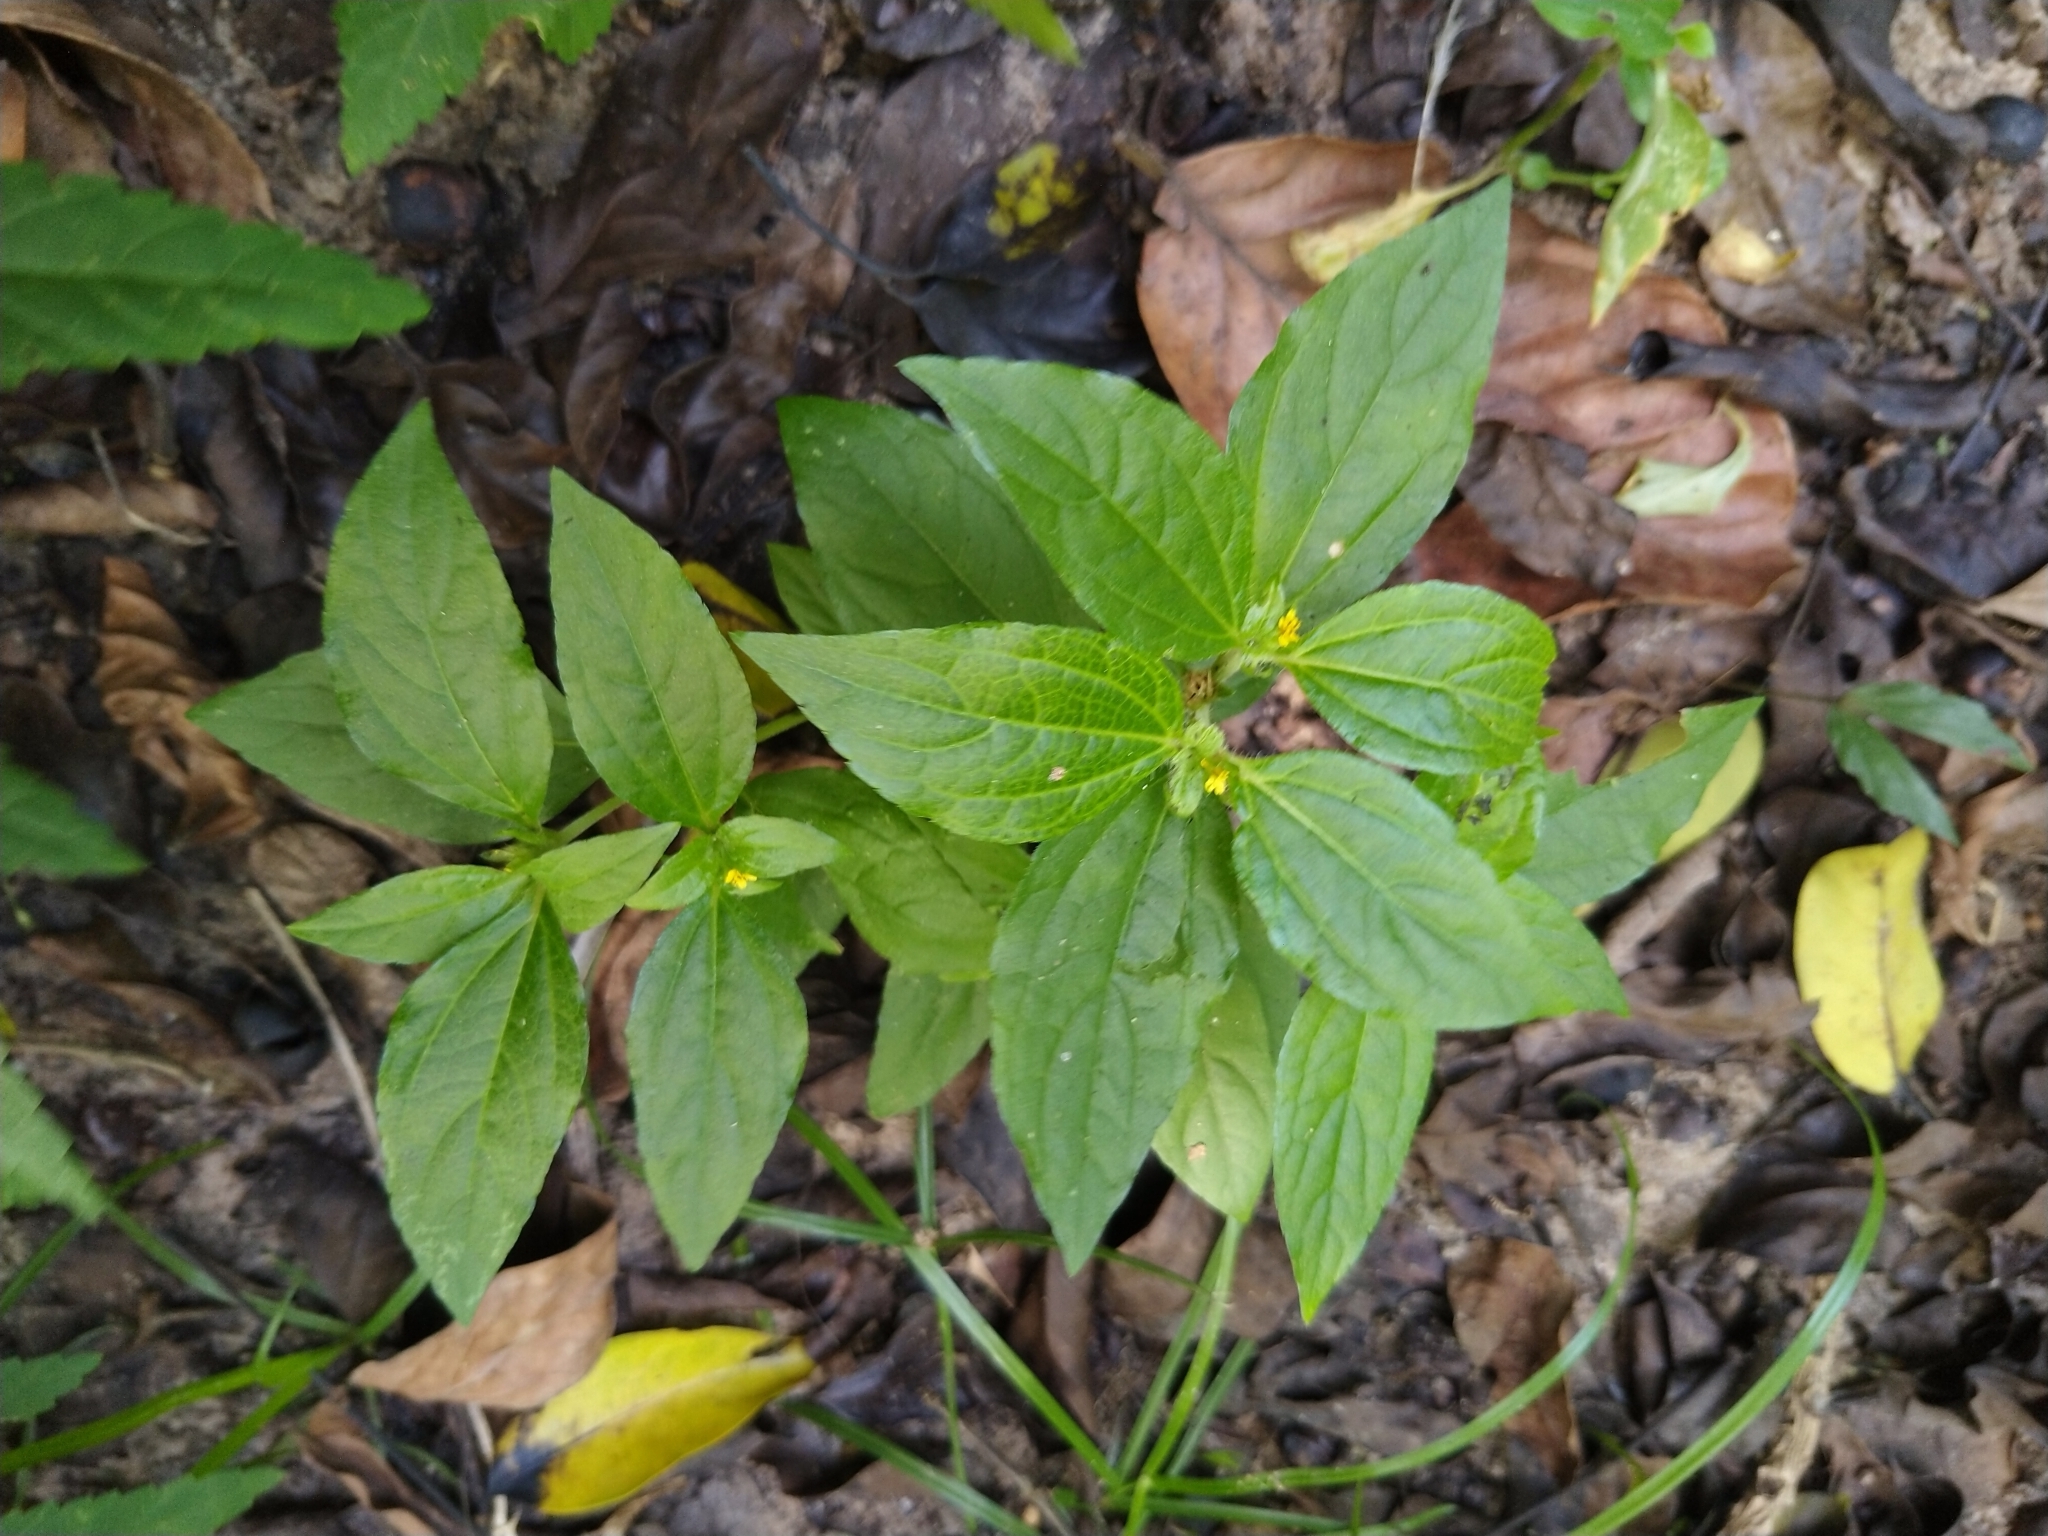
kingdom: Plantae
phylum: Tracheophyta
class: Magnoliopsida
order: Asterales
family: Asteraceae
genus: Synedrella
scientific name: Synedrella nodiflora
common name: Nodeweed
